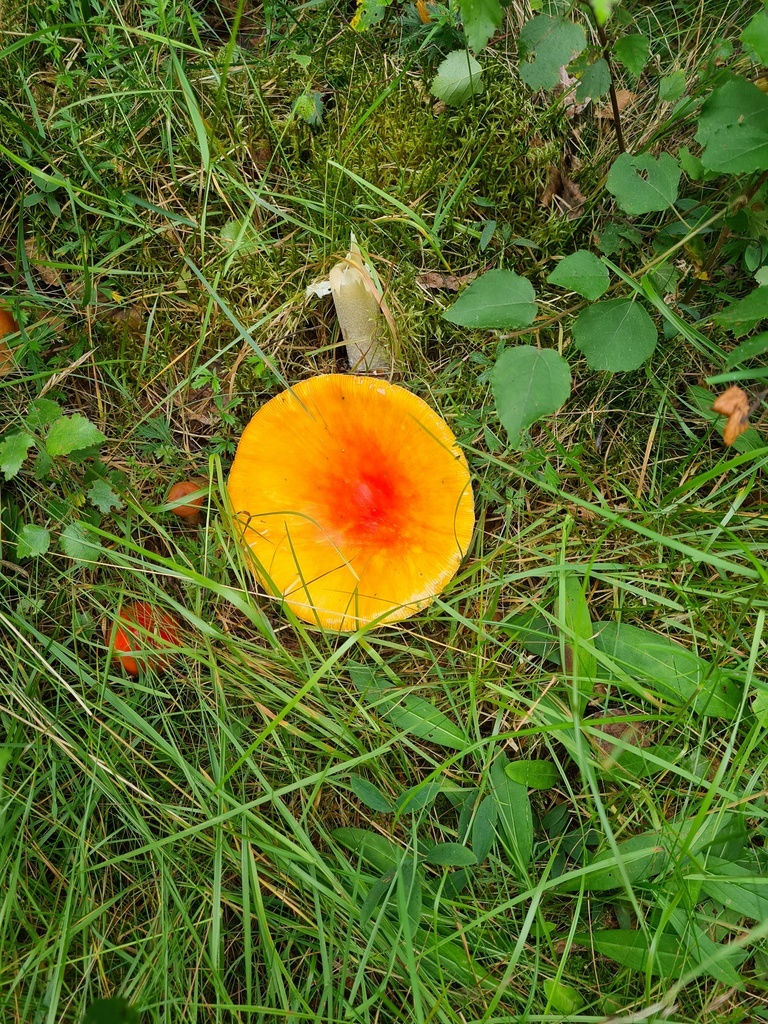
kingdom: Fungi
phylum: Basidiomycota
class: Agaricomycetes
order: Agaricales
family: Amanitaceae
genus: Amanita
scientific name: Amanita muscaria
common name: Fly agaric
